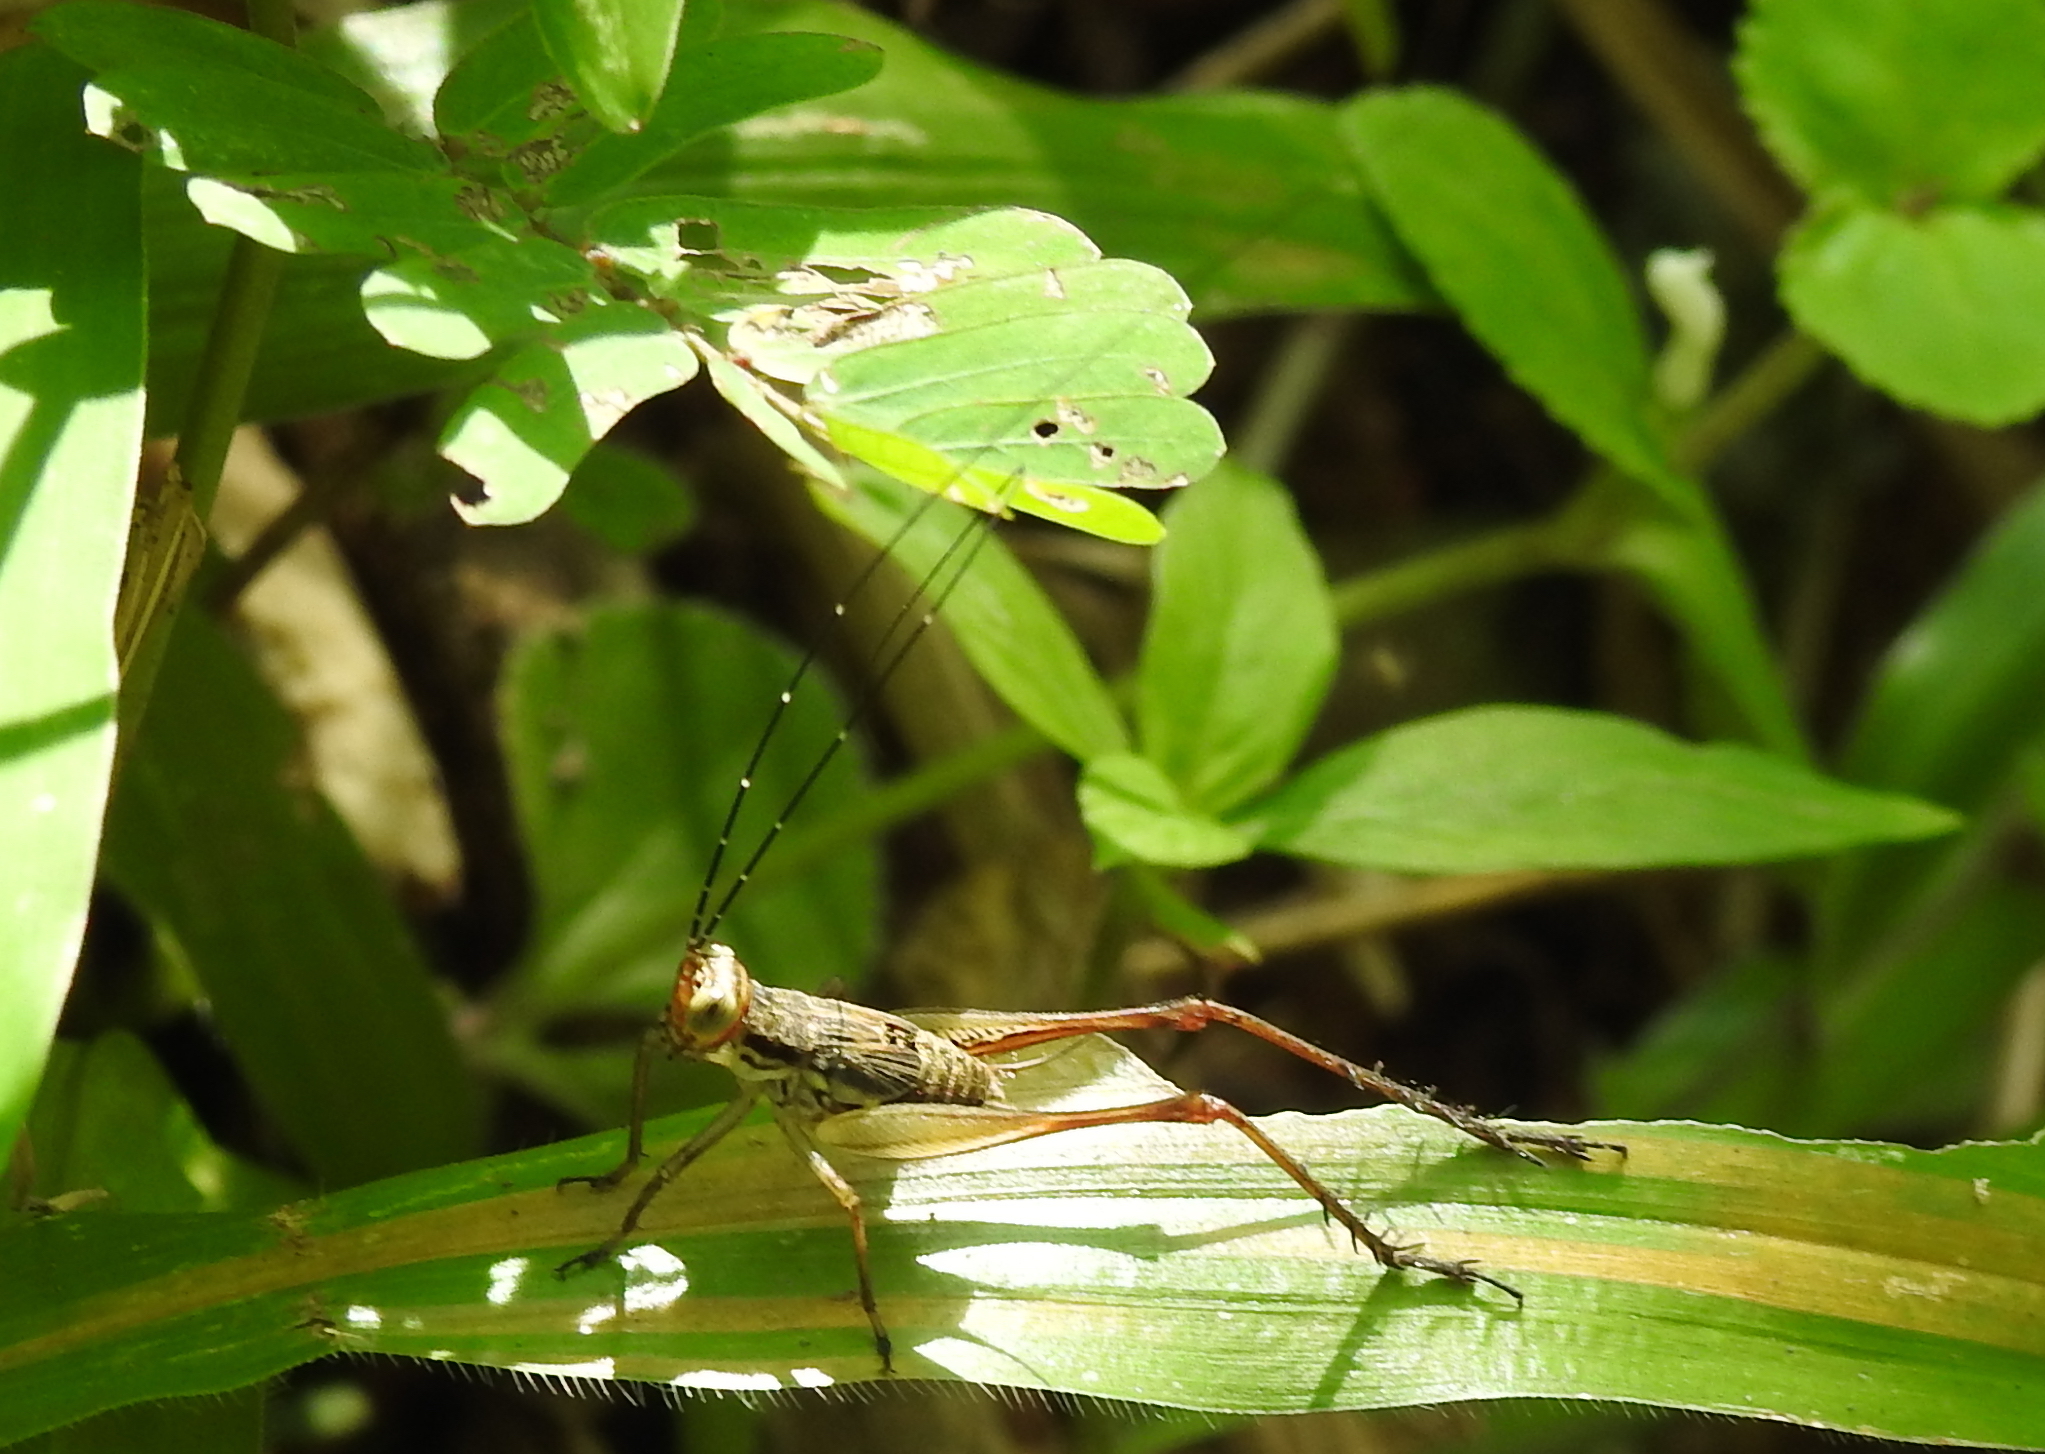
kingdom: Animalia
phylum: Arthropoda
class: Insecta
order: Orthoptera
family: Gryllidae
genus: Nisitrus
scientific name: Nisitrus malaya
